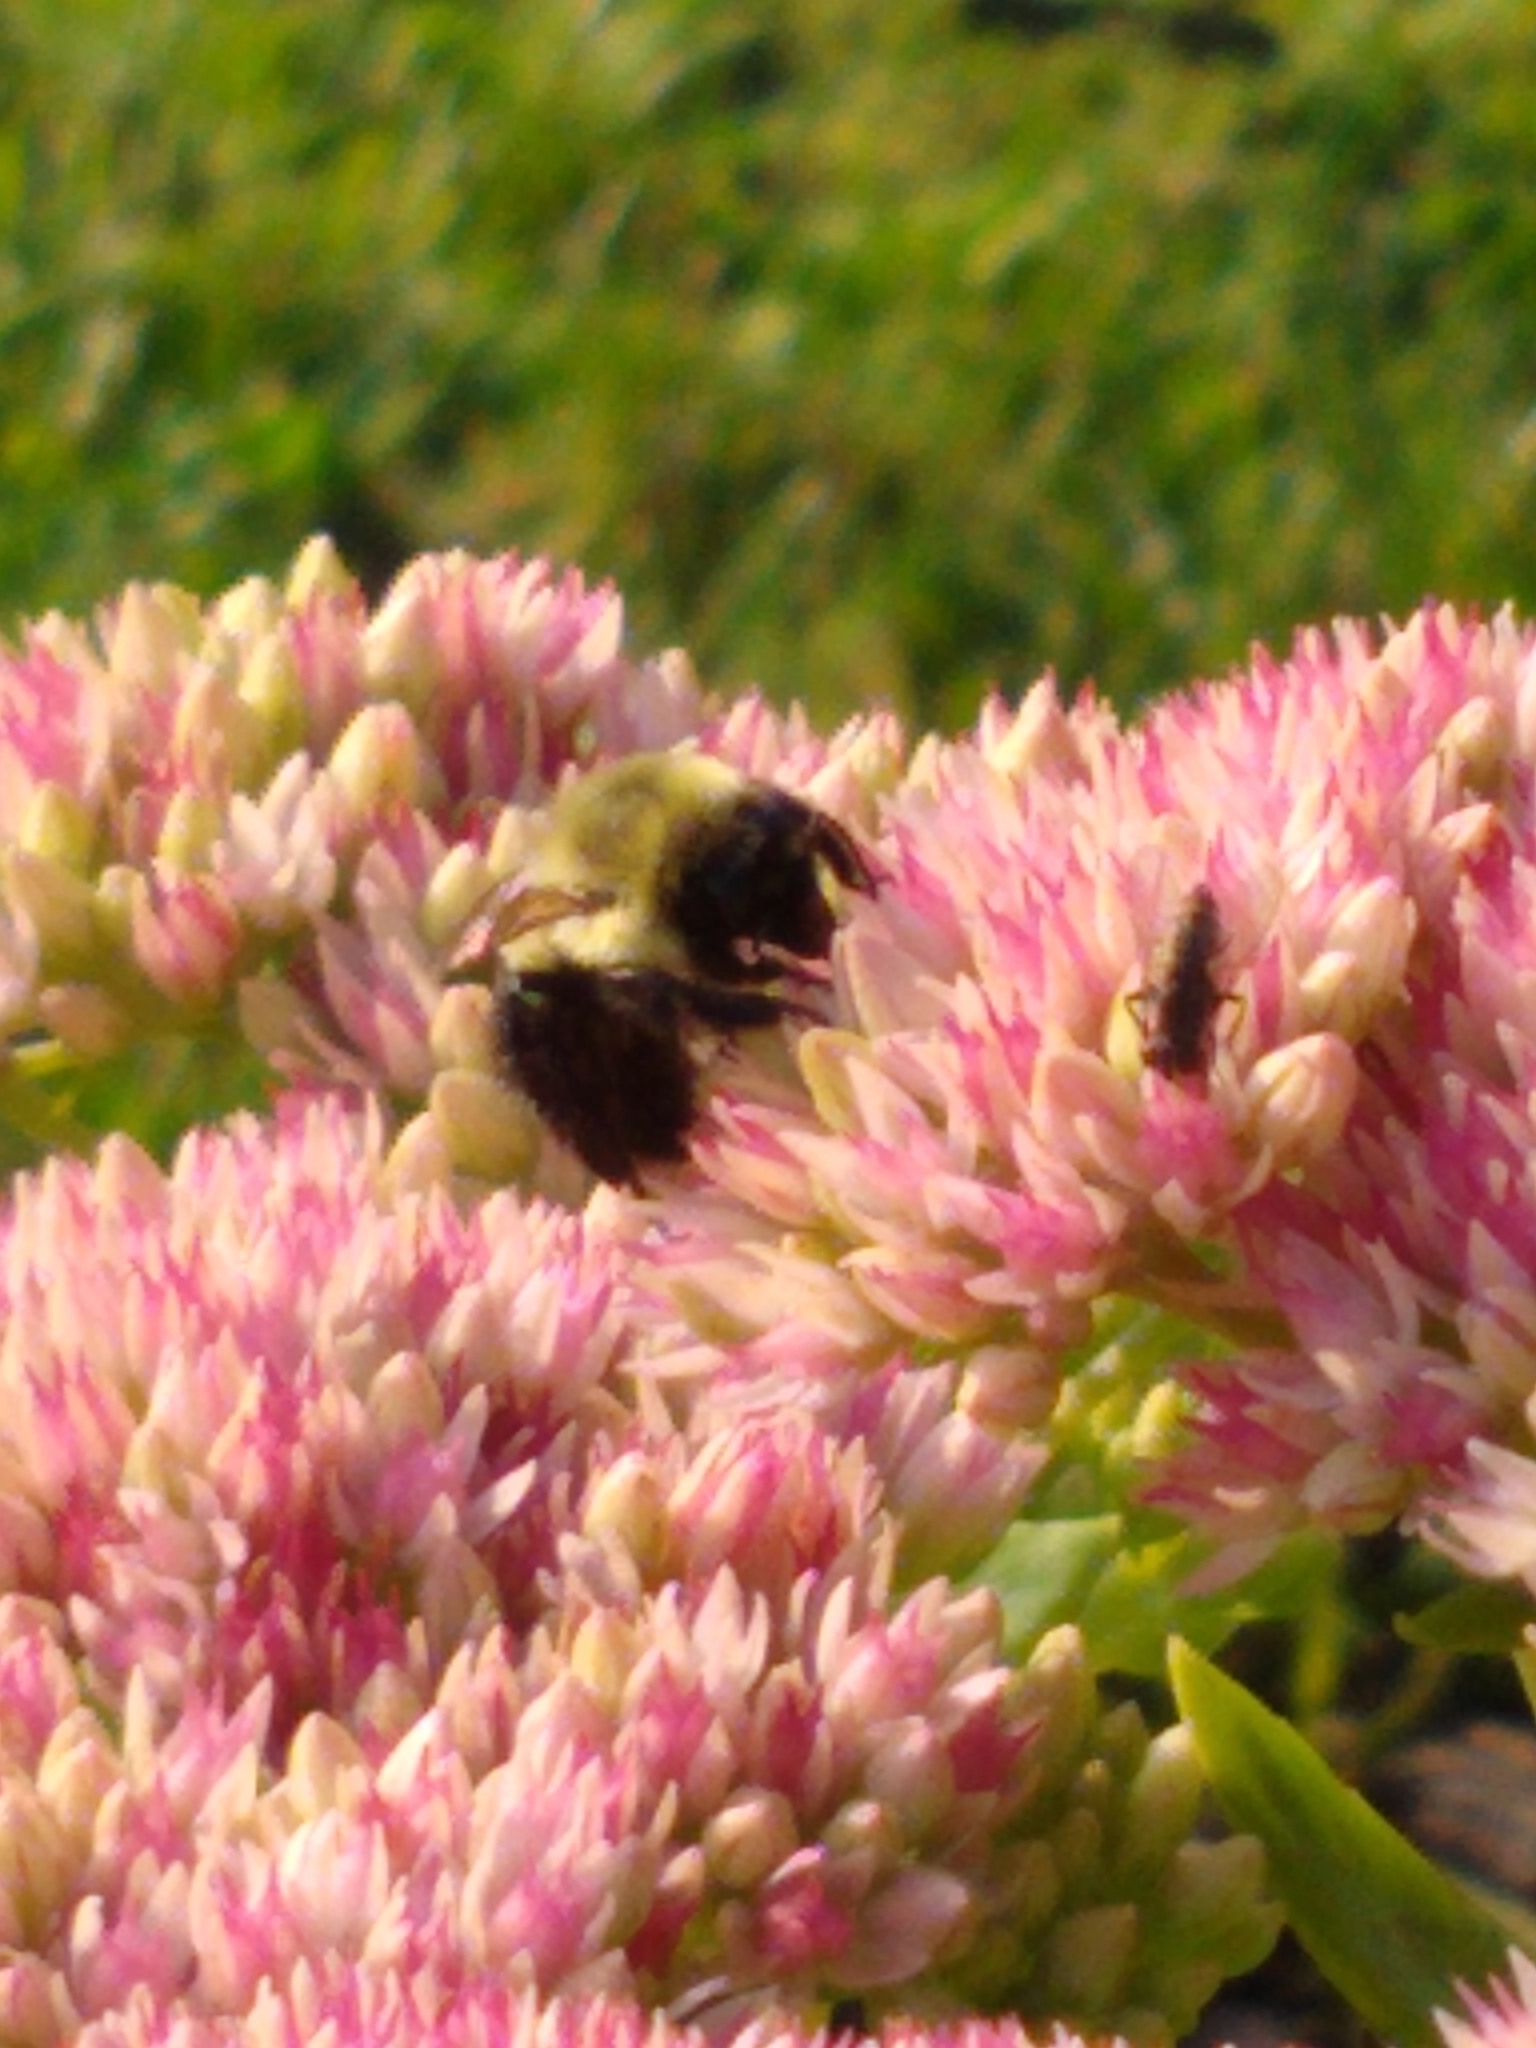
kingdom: Animalia
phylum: Arthropoda
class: Insecta
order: Hymenoptera
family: Apidae
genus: Bombus
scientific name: Bombus impatiens
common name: Common eastern bumble bee
